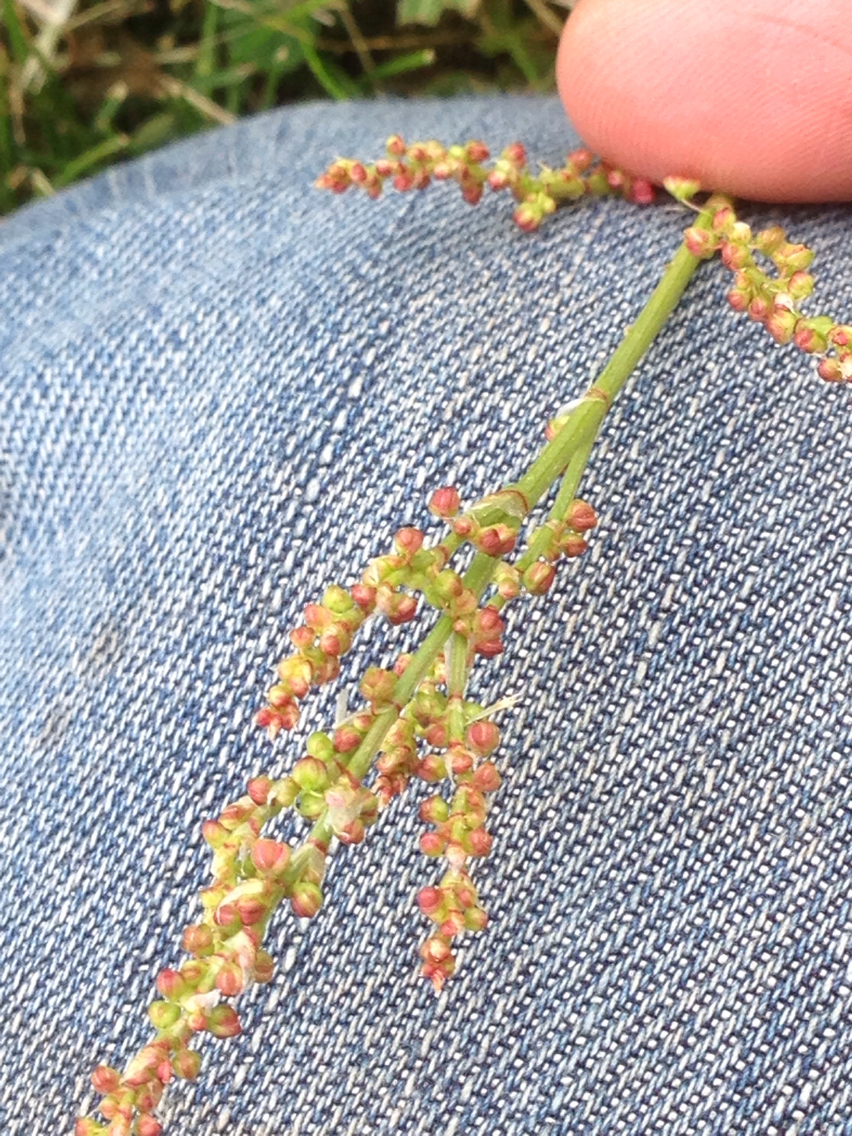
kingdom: Plantae
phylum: Tracheophyta
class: Magnoliopsida
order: Caryophyllales
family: Polygonaceae
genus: Rumex
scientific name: Rumex acetosella
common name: Common sheep sorrel
